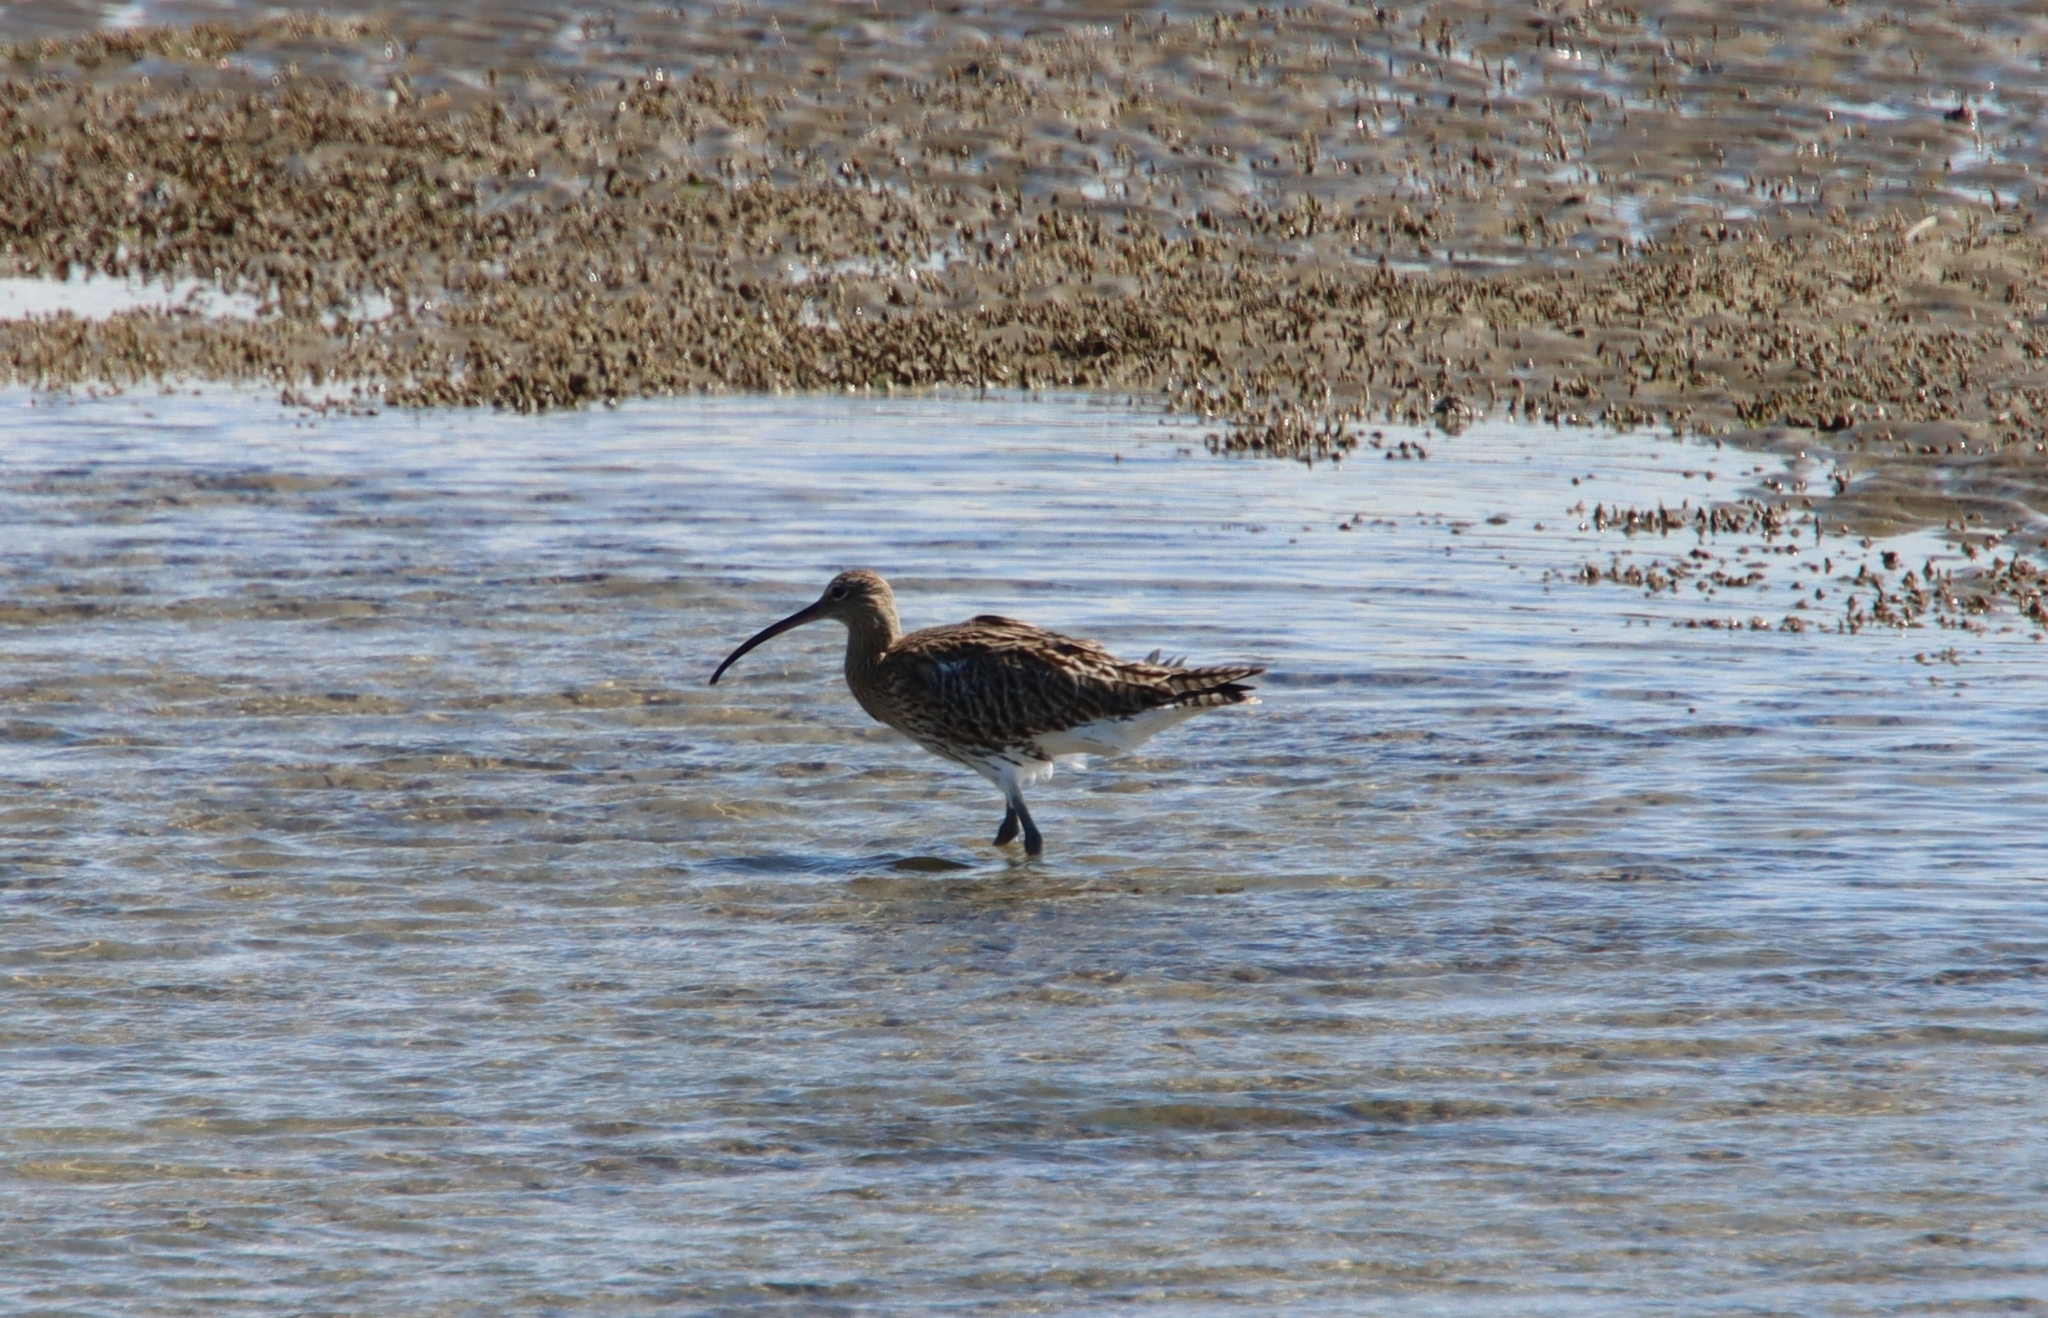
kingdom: Animalia
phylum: Chordata
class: Aves
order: Charadriiformes
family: Scolopacidae
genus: Numenius
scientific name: Numenius arquata
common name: Eurasian curlew
